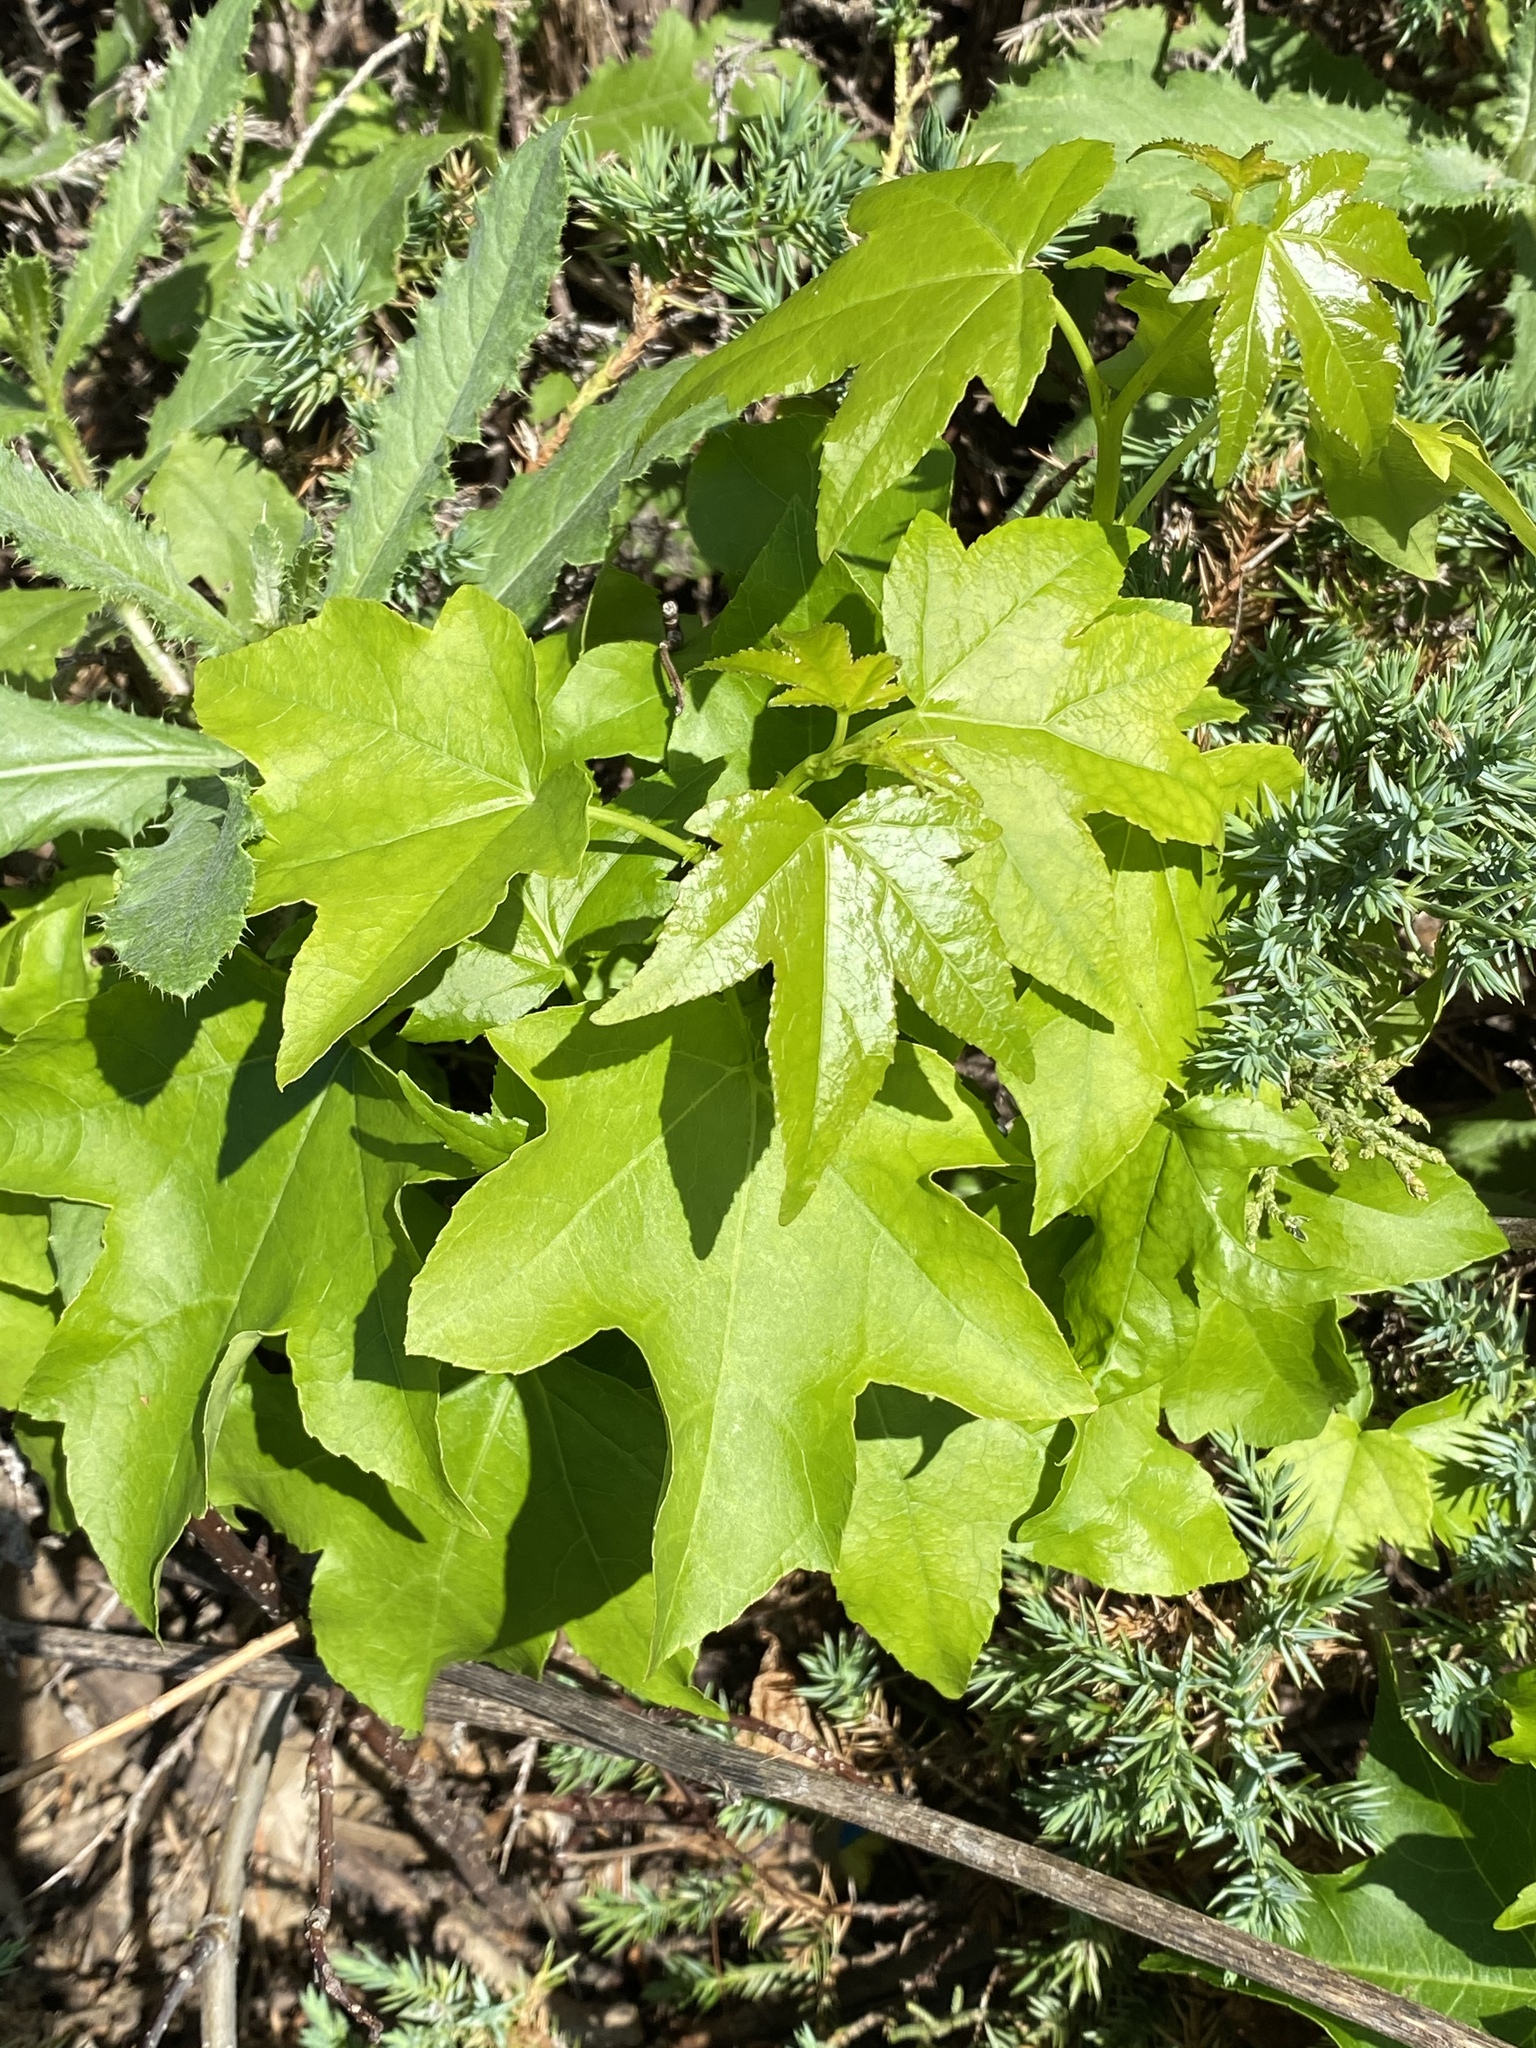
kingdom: Plantae
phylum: Tracheophyta
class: Magnoliopsida
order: Saxifragales
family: Altingiaceae
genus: Liquidambar
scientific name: Liquidambar styraciflua
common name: Sweet gum
